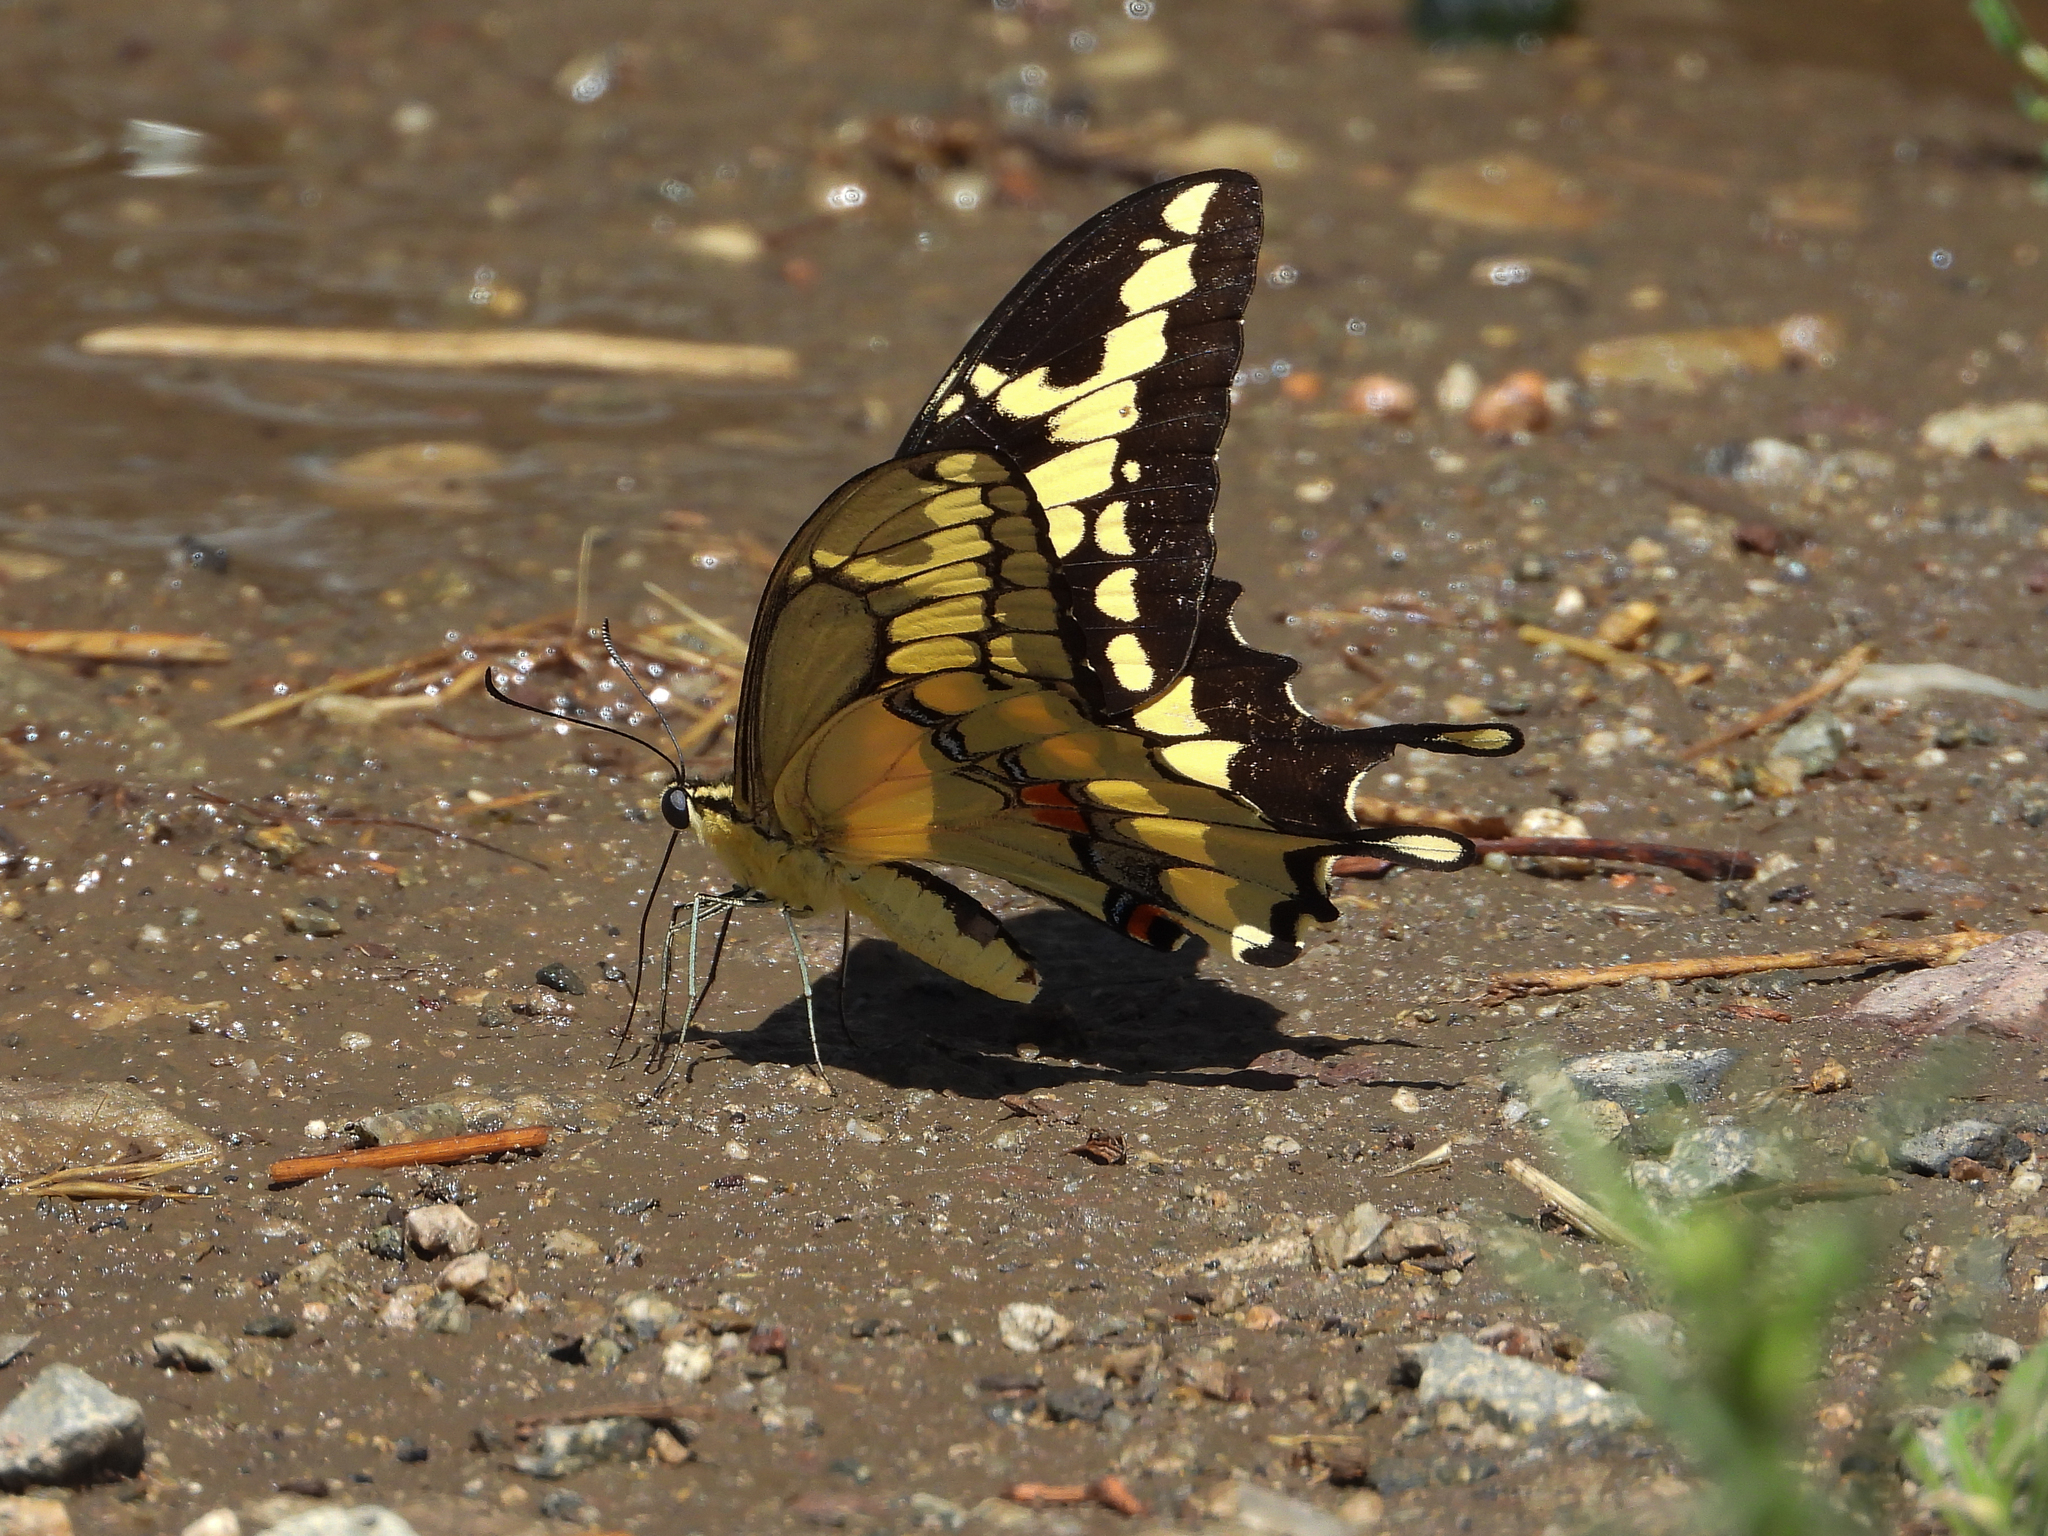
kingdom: Animalia
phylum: Arthropoda
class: Insecta
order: Lepidoptera
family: Papilionidae
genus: Papilio
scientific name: Papilio rumiko
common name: Western giant swallowtail
